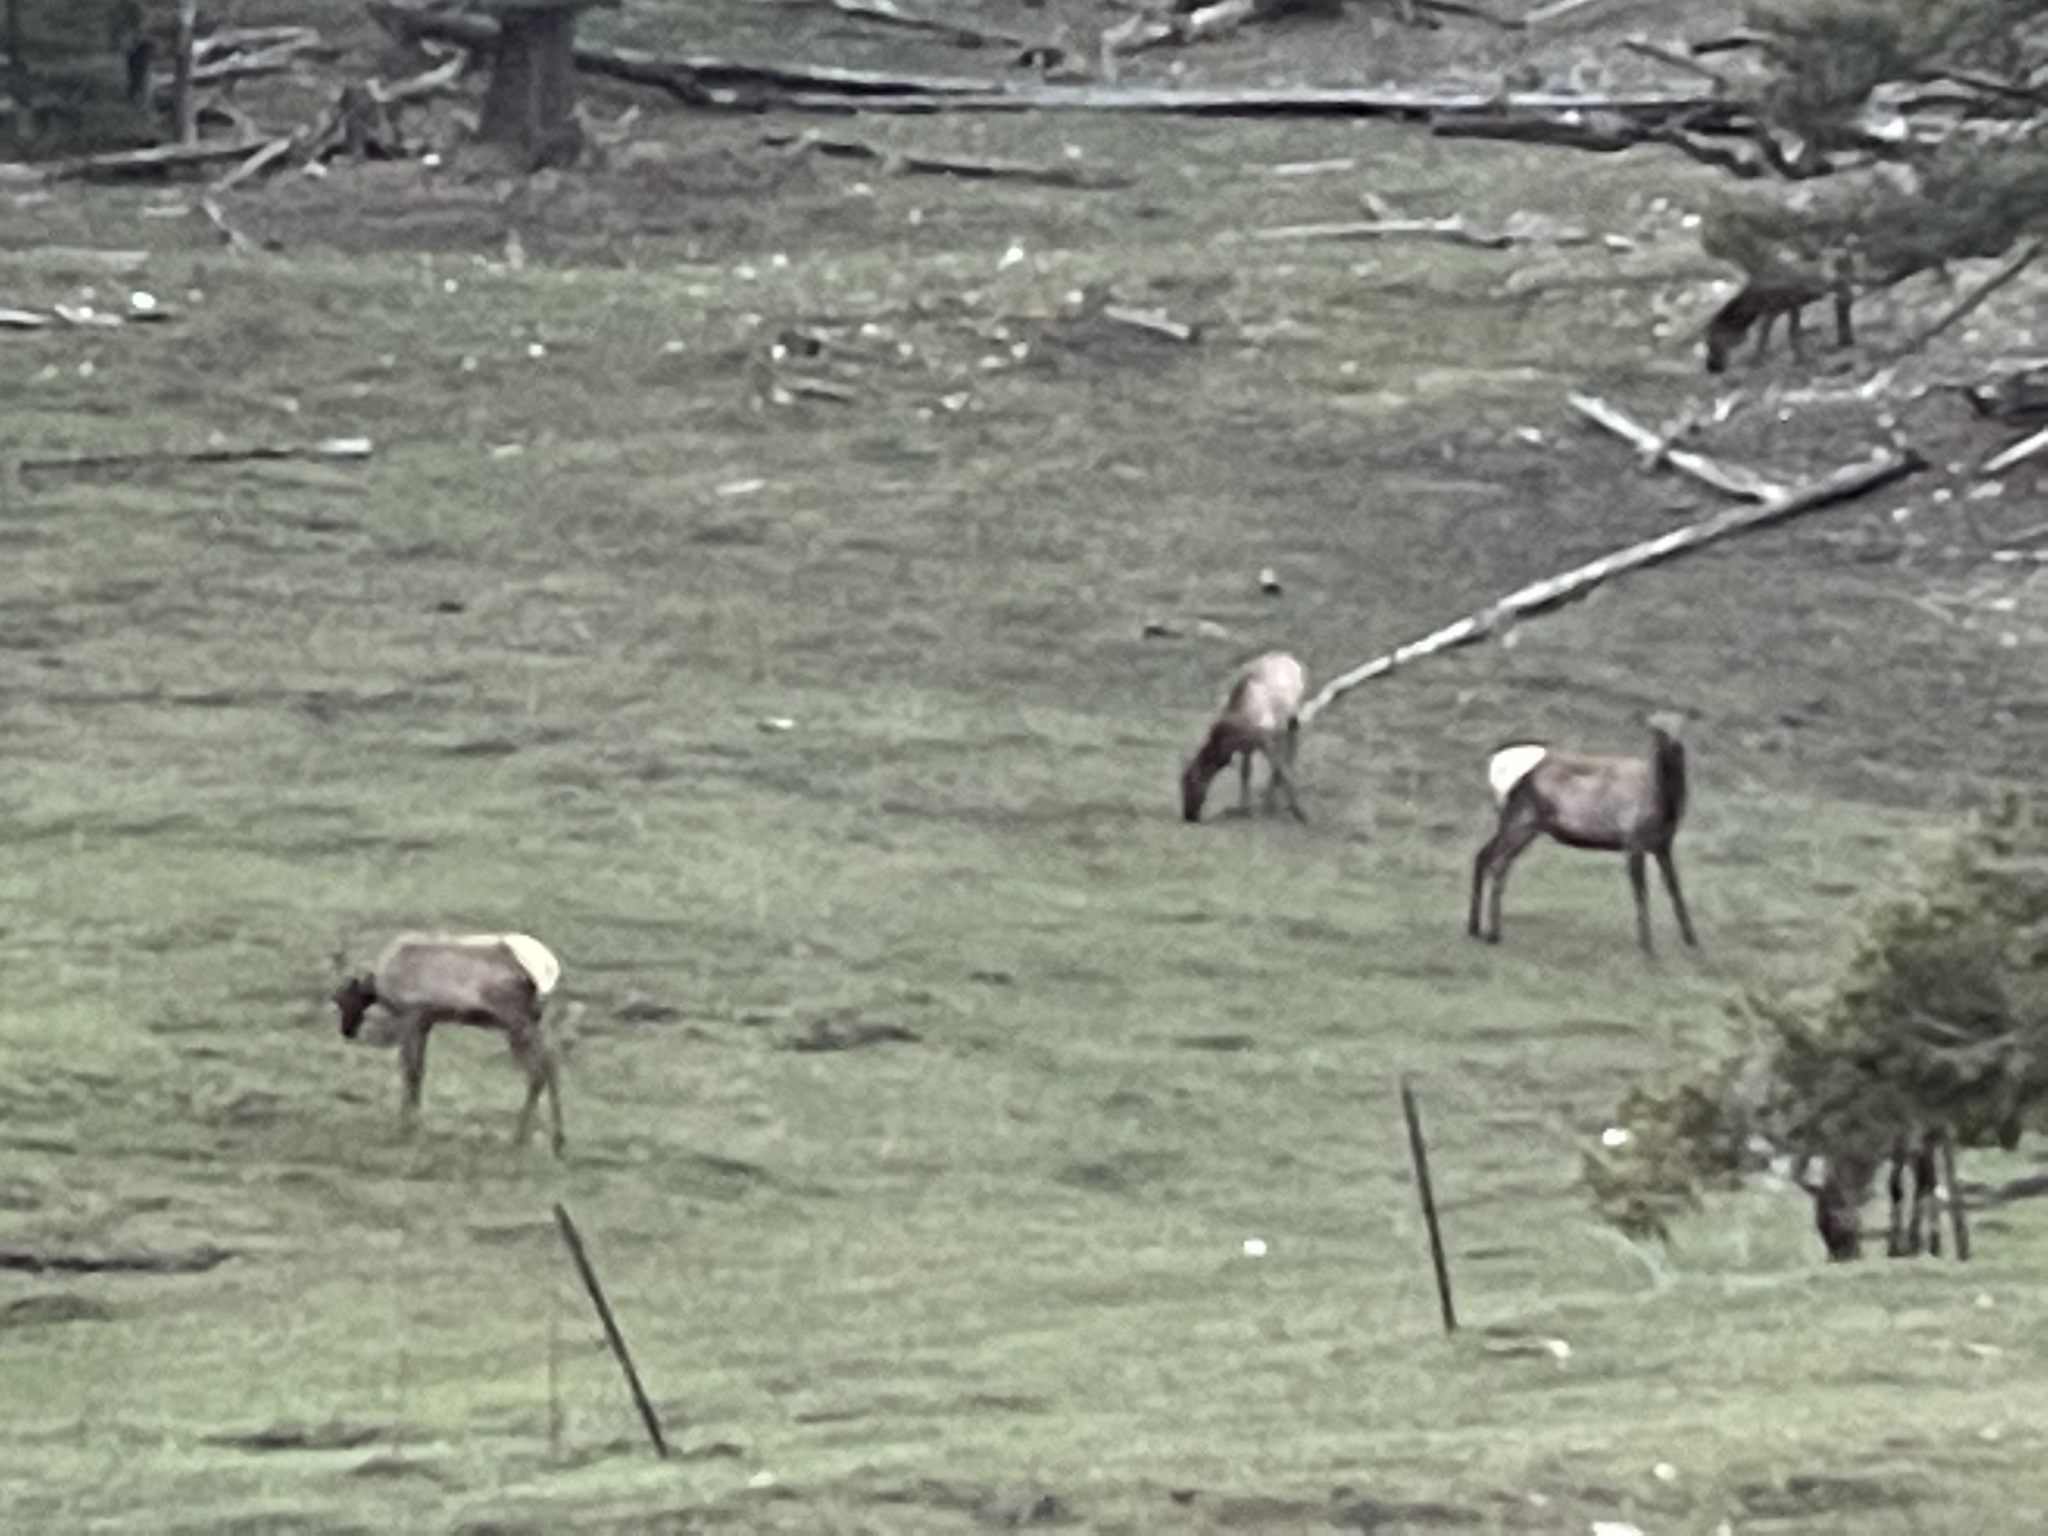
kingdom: Animalia
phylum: Chordata
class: Mammalia
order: Artiodactyla
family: Cervidae
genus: Cervus
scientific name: Cervus elaphus
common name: Red deer
